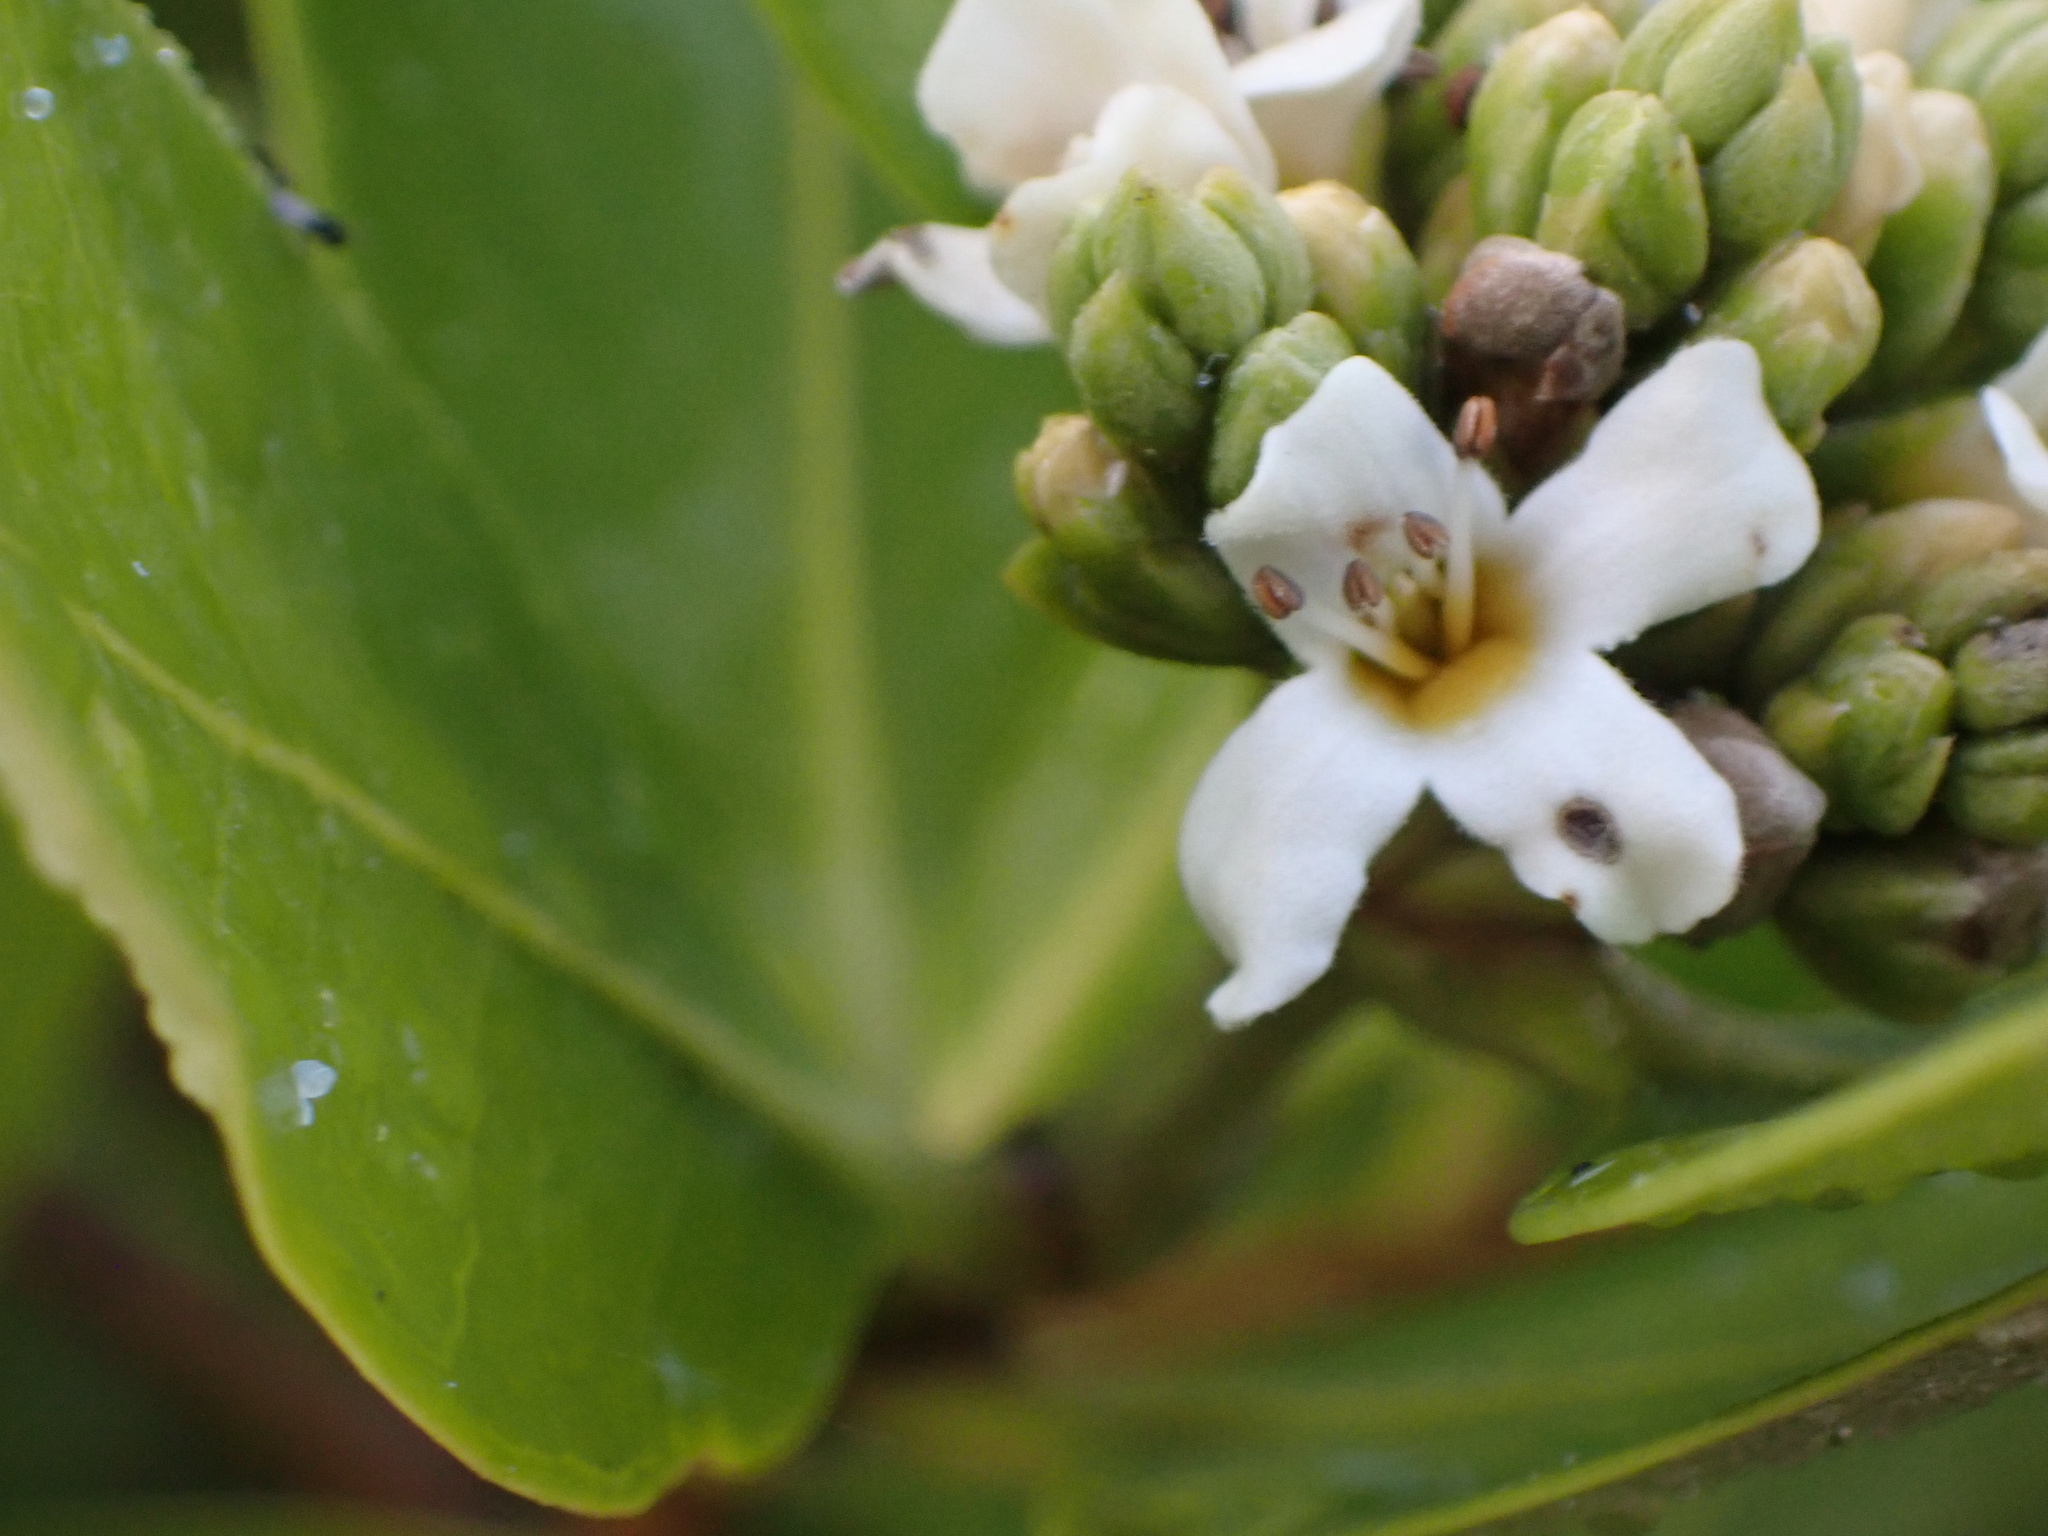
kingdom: Plantae
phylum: Tracheophyta
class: Magnoliopsida
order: Lamiales
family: Acanthaceae
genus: Avicennia
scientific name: Avicennia germinans
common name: Black mangrove
